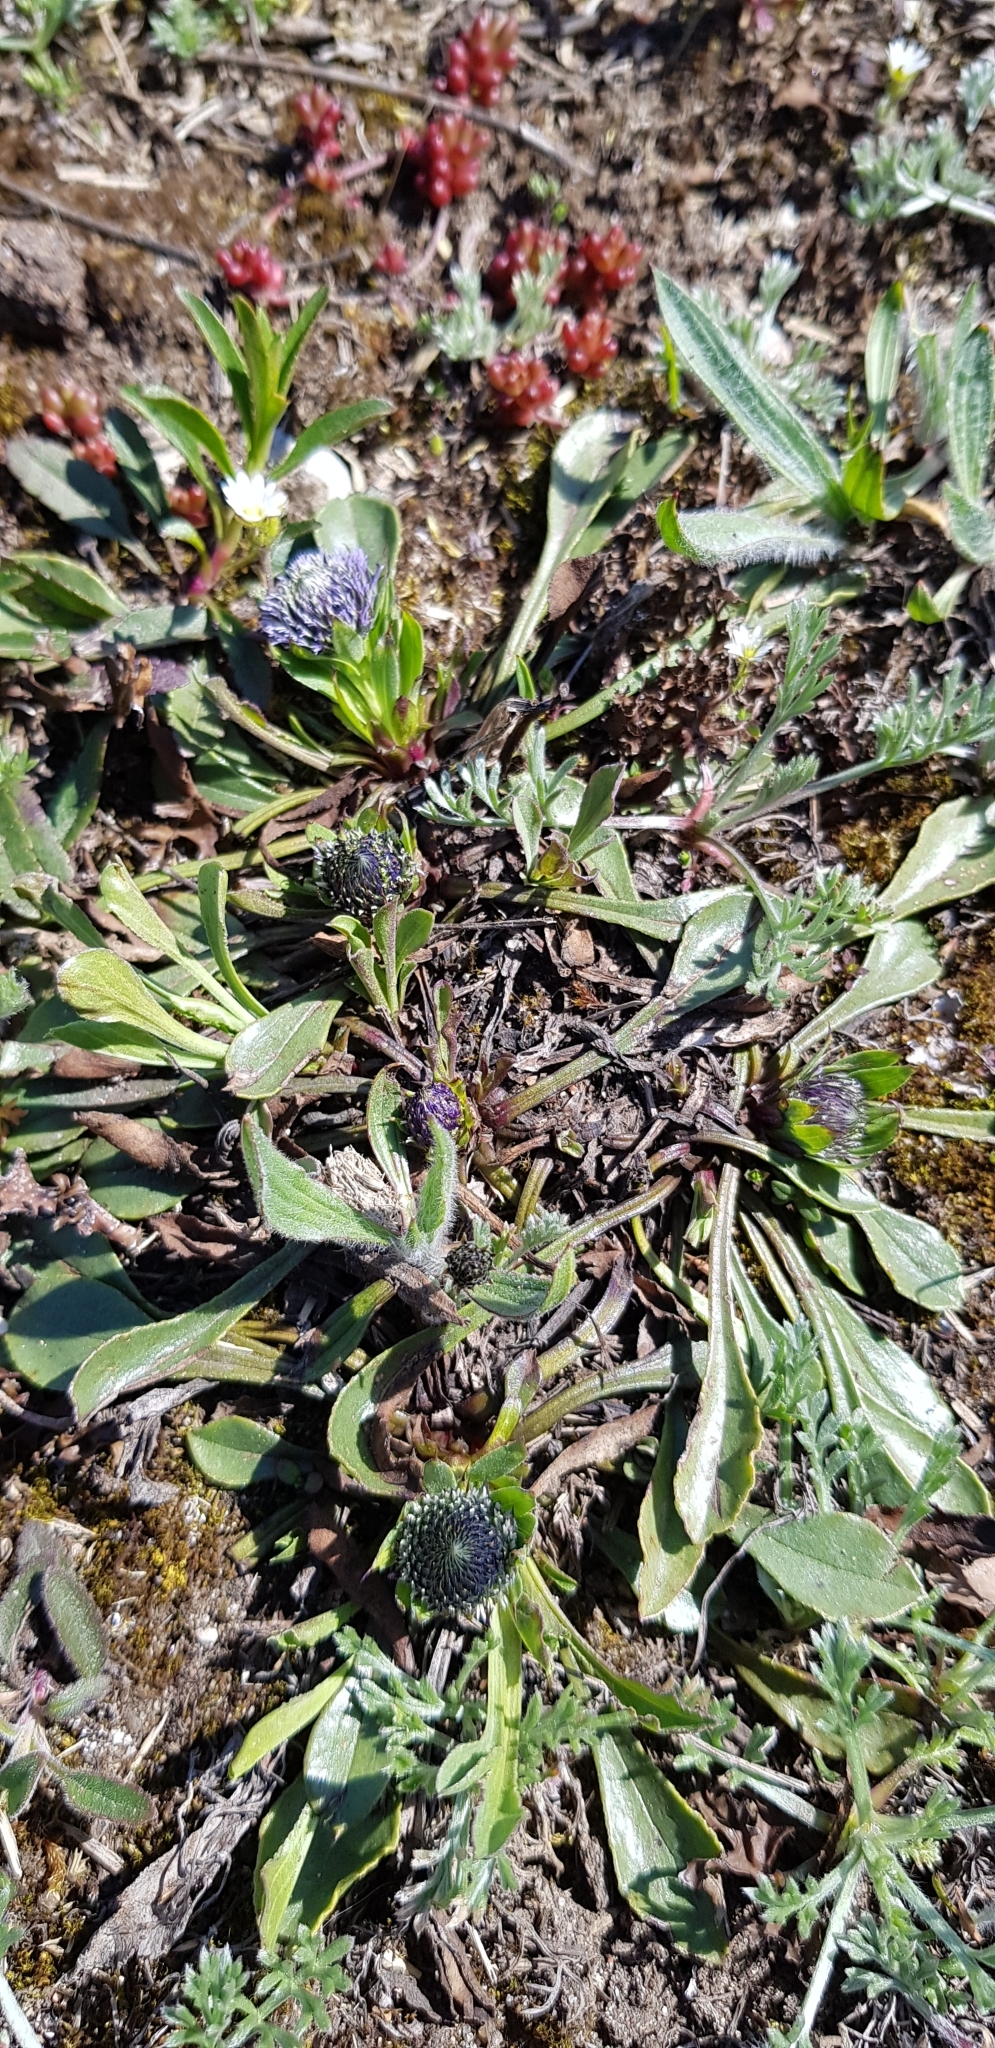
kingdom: Plantae
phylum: Tracheophyta
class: Magnoliopsida
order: Lamiales
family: Plantaginaceae
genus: Globularia
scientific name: Globularia vulgaris
